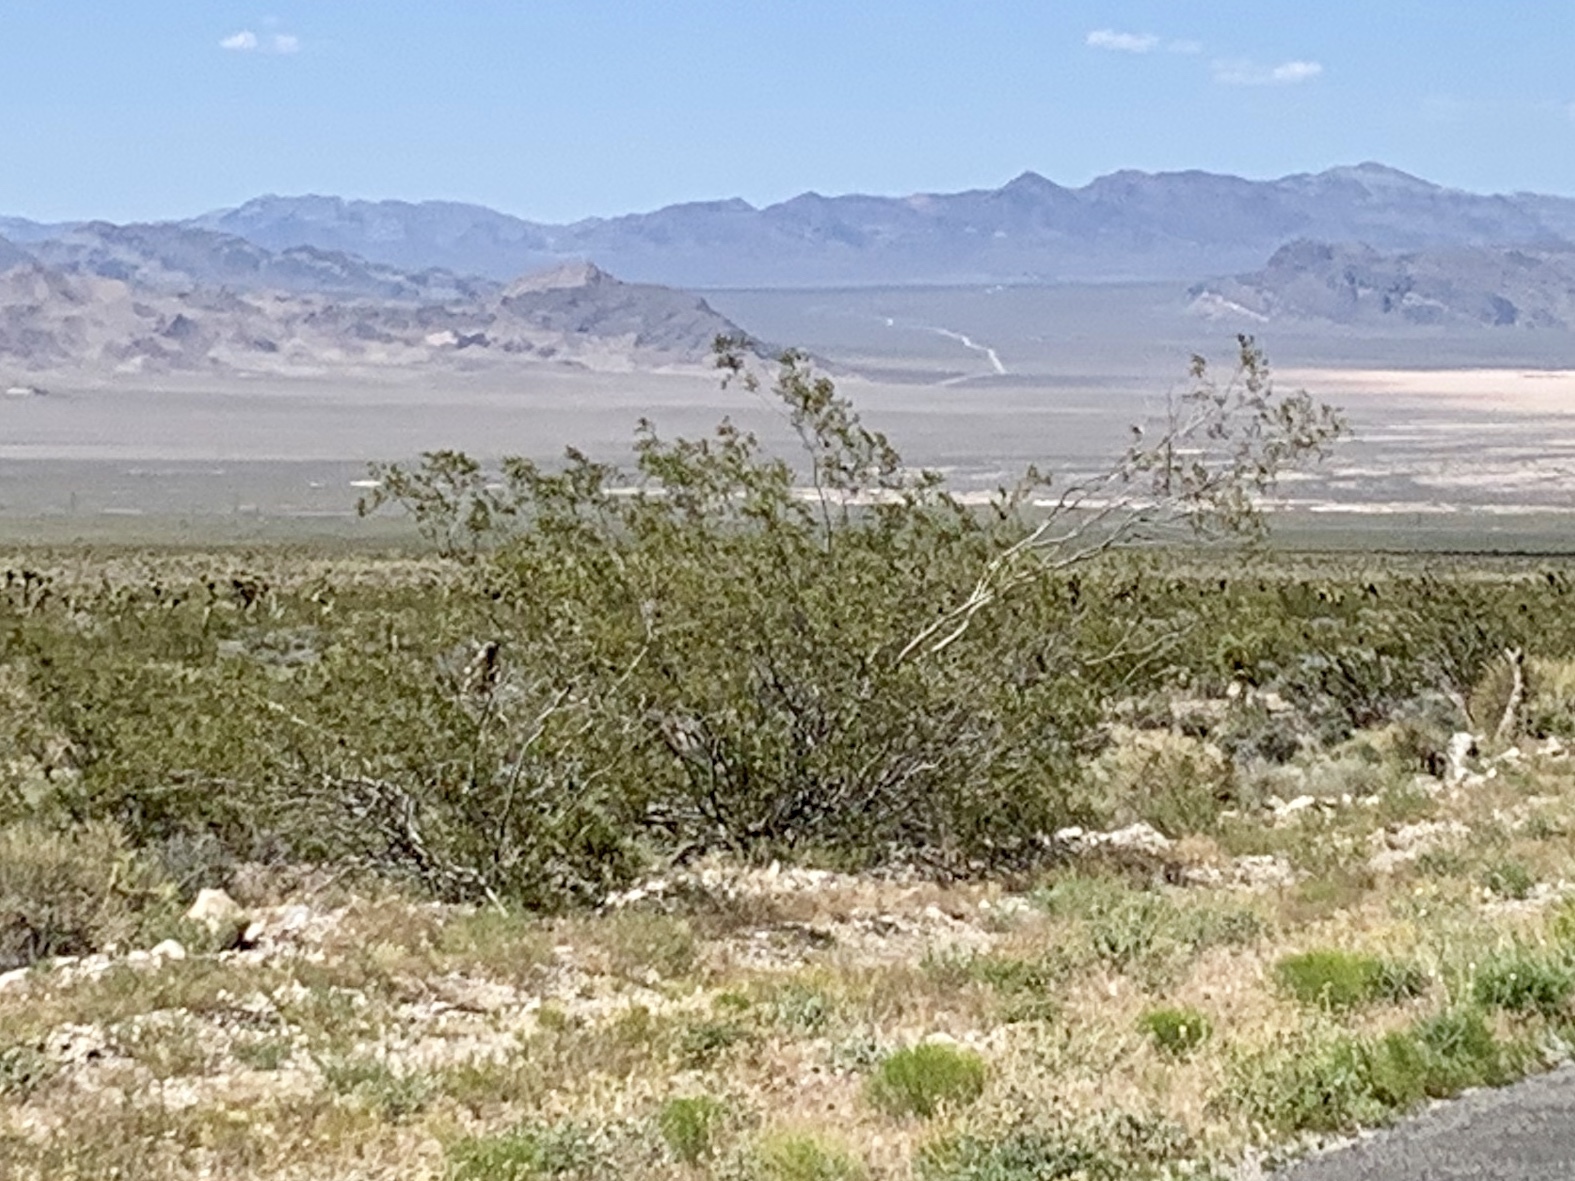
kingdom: Plantae
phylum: Tracheophyta
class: Magnoliopsida
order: Zygophyllales
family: Zygophyllaceae
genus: Larrea
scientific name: Larrea tridentata
